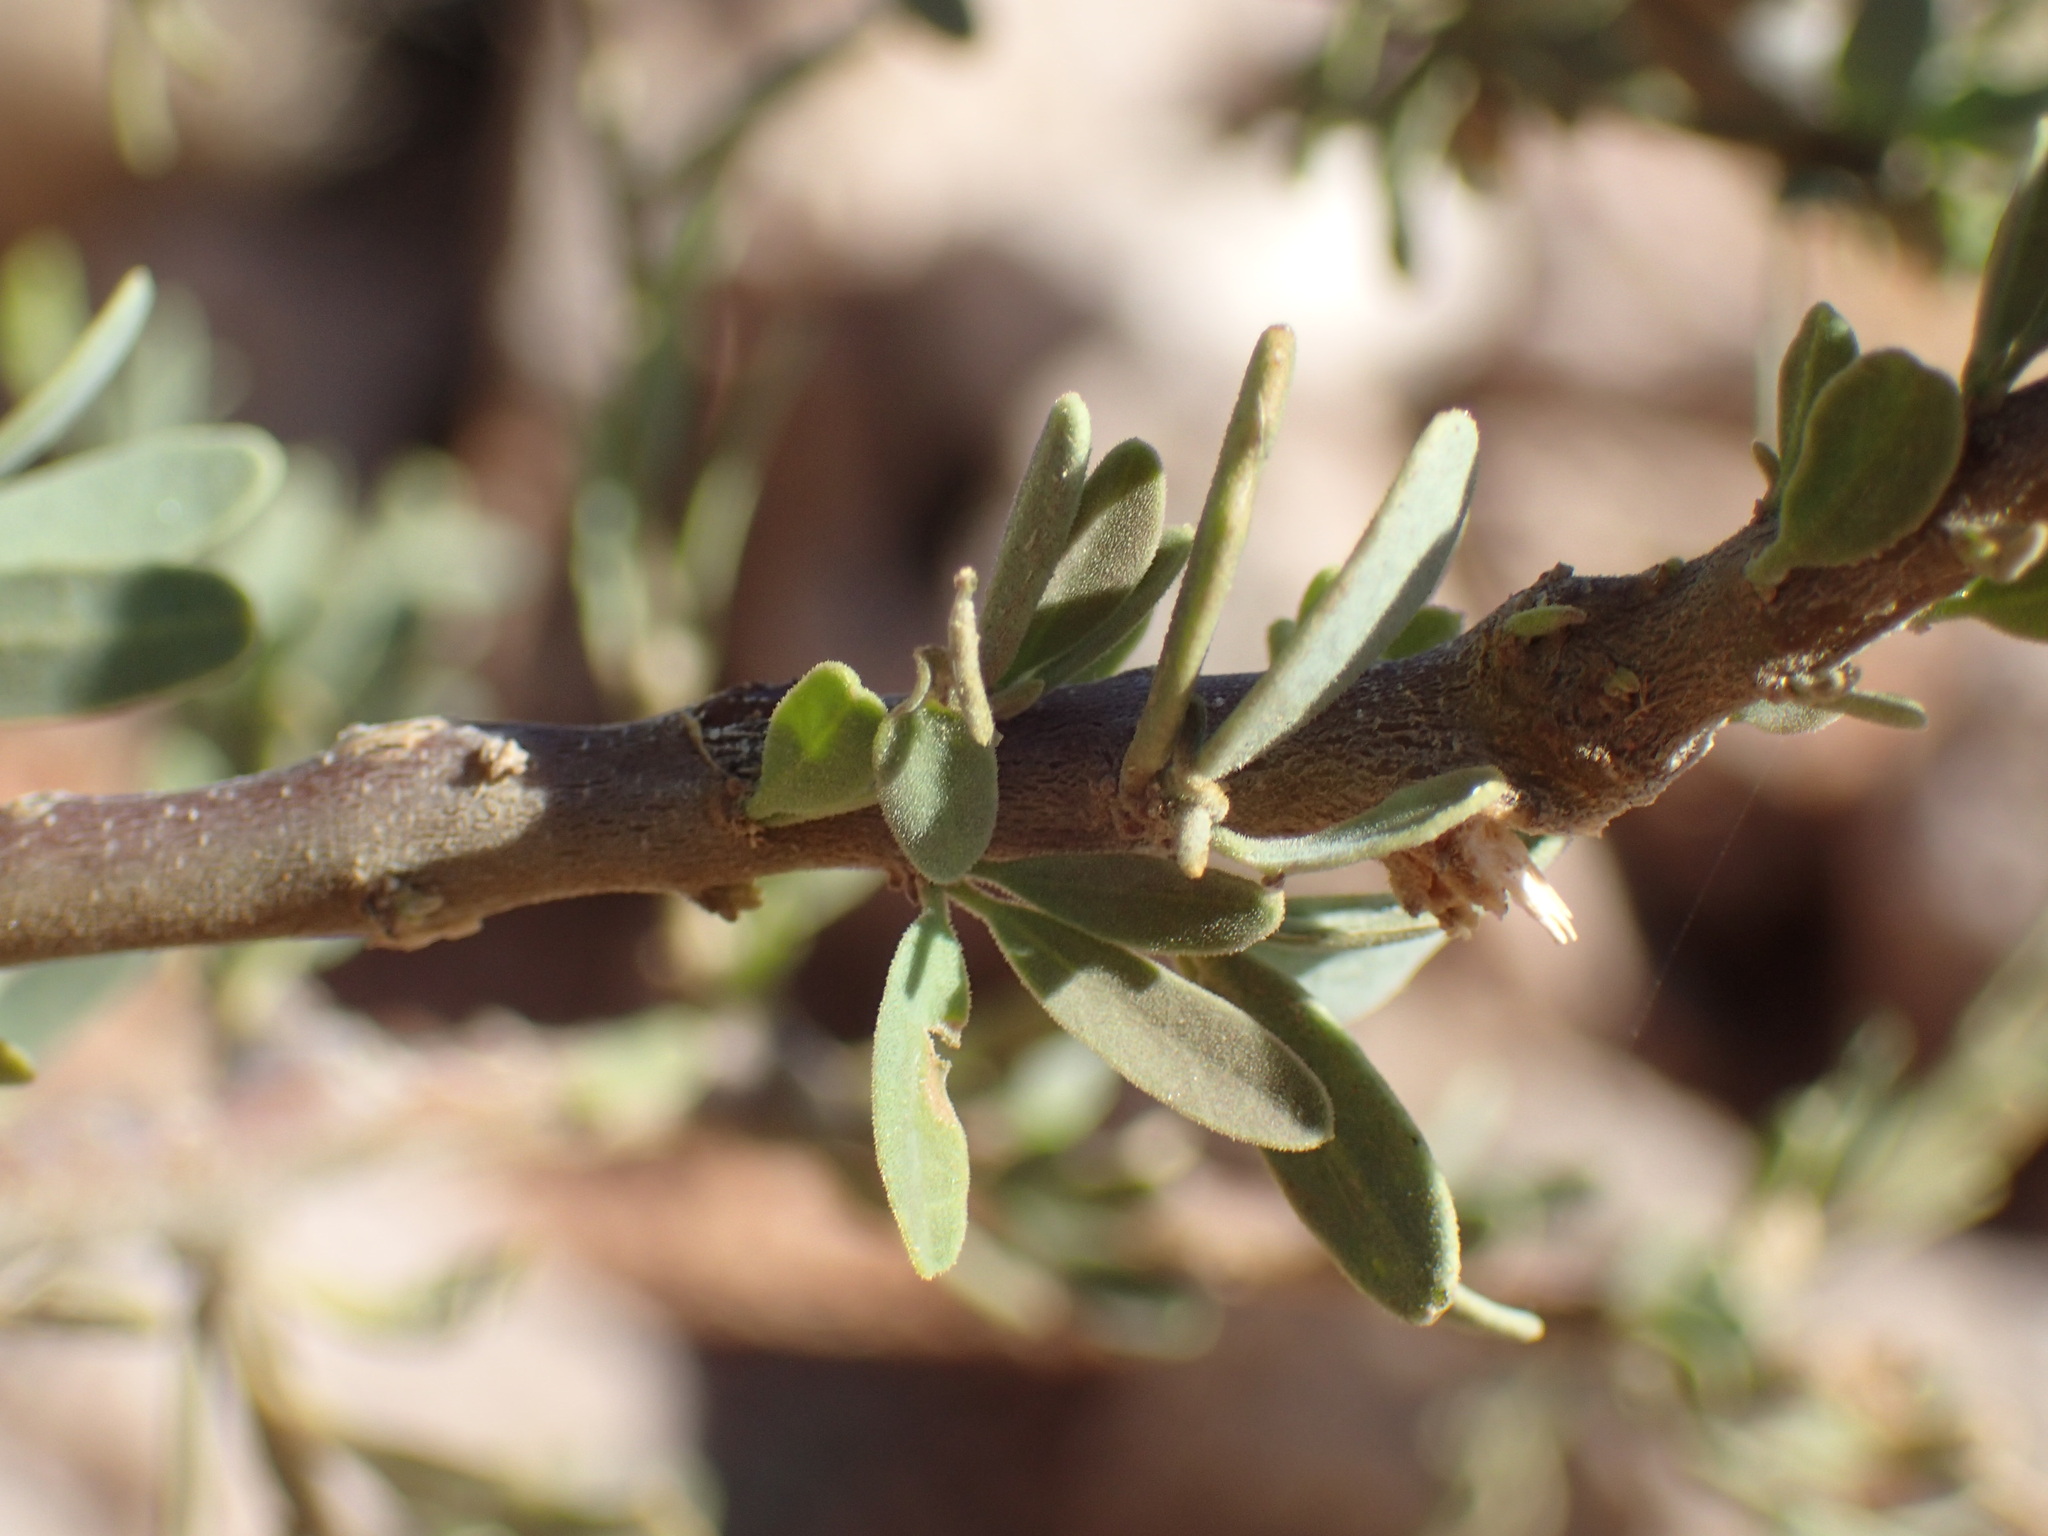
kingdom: Plantae
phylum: Tracheophyta
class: Magnoliopsida
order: Brassicales
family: Capparaceae
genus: Boscia
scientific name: Boscia foetida
